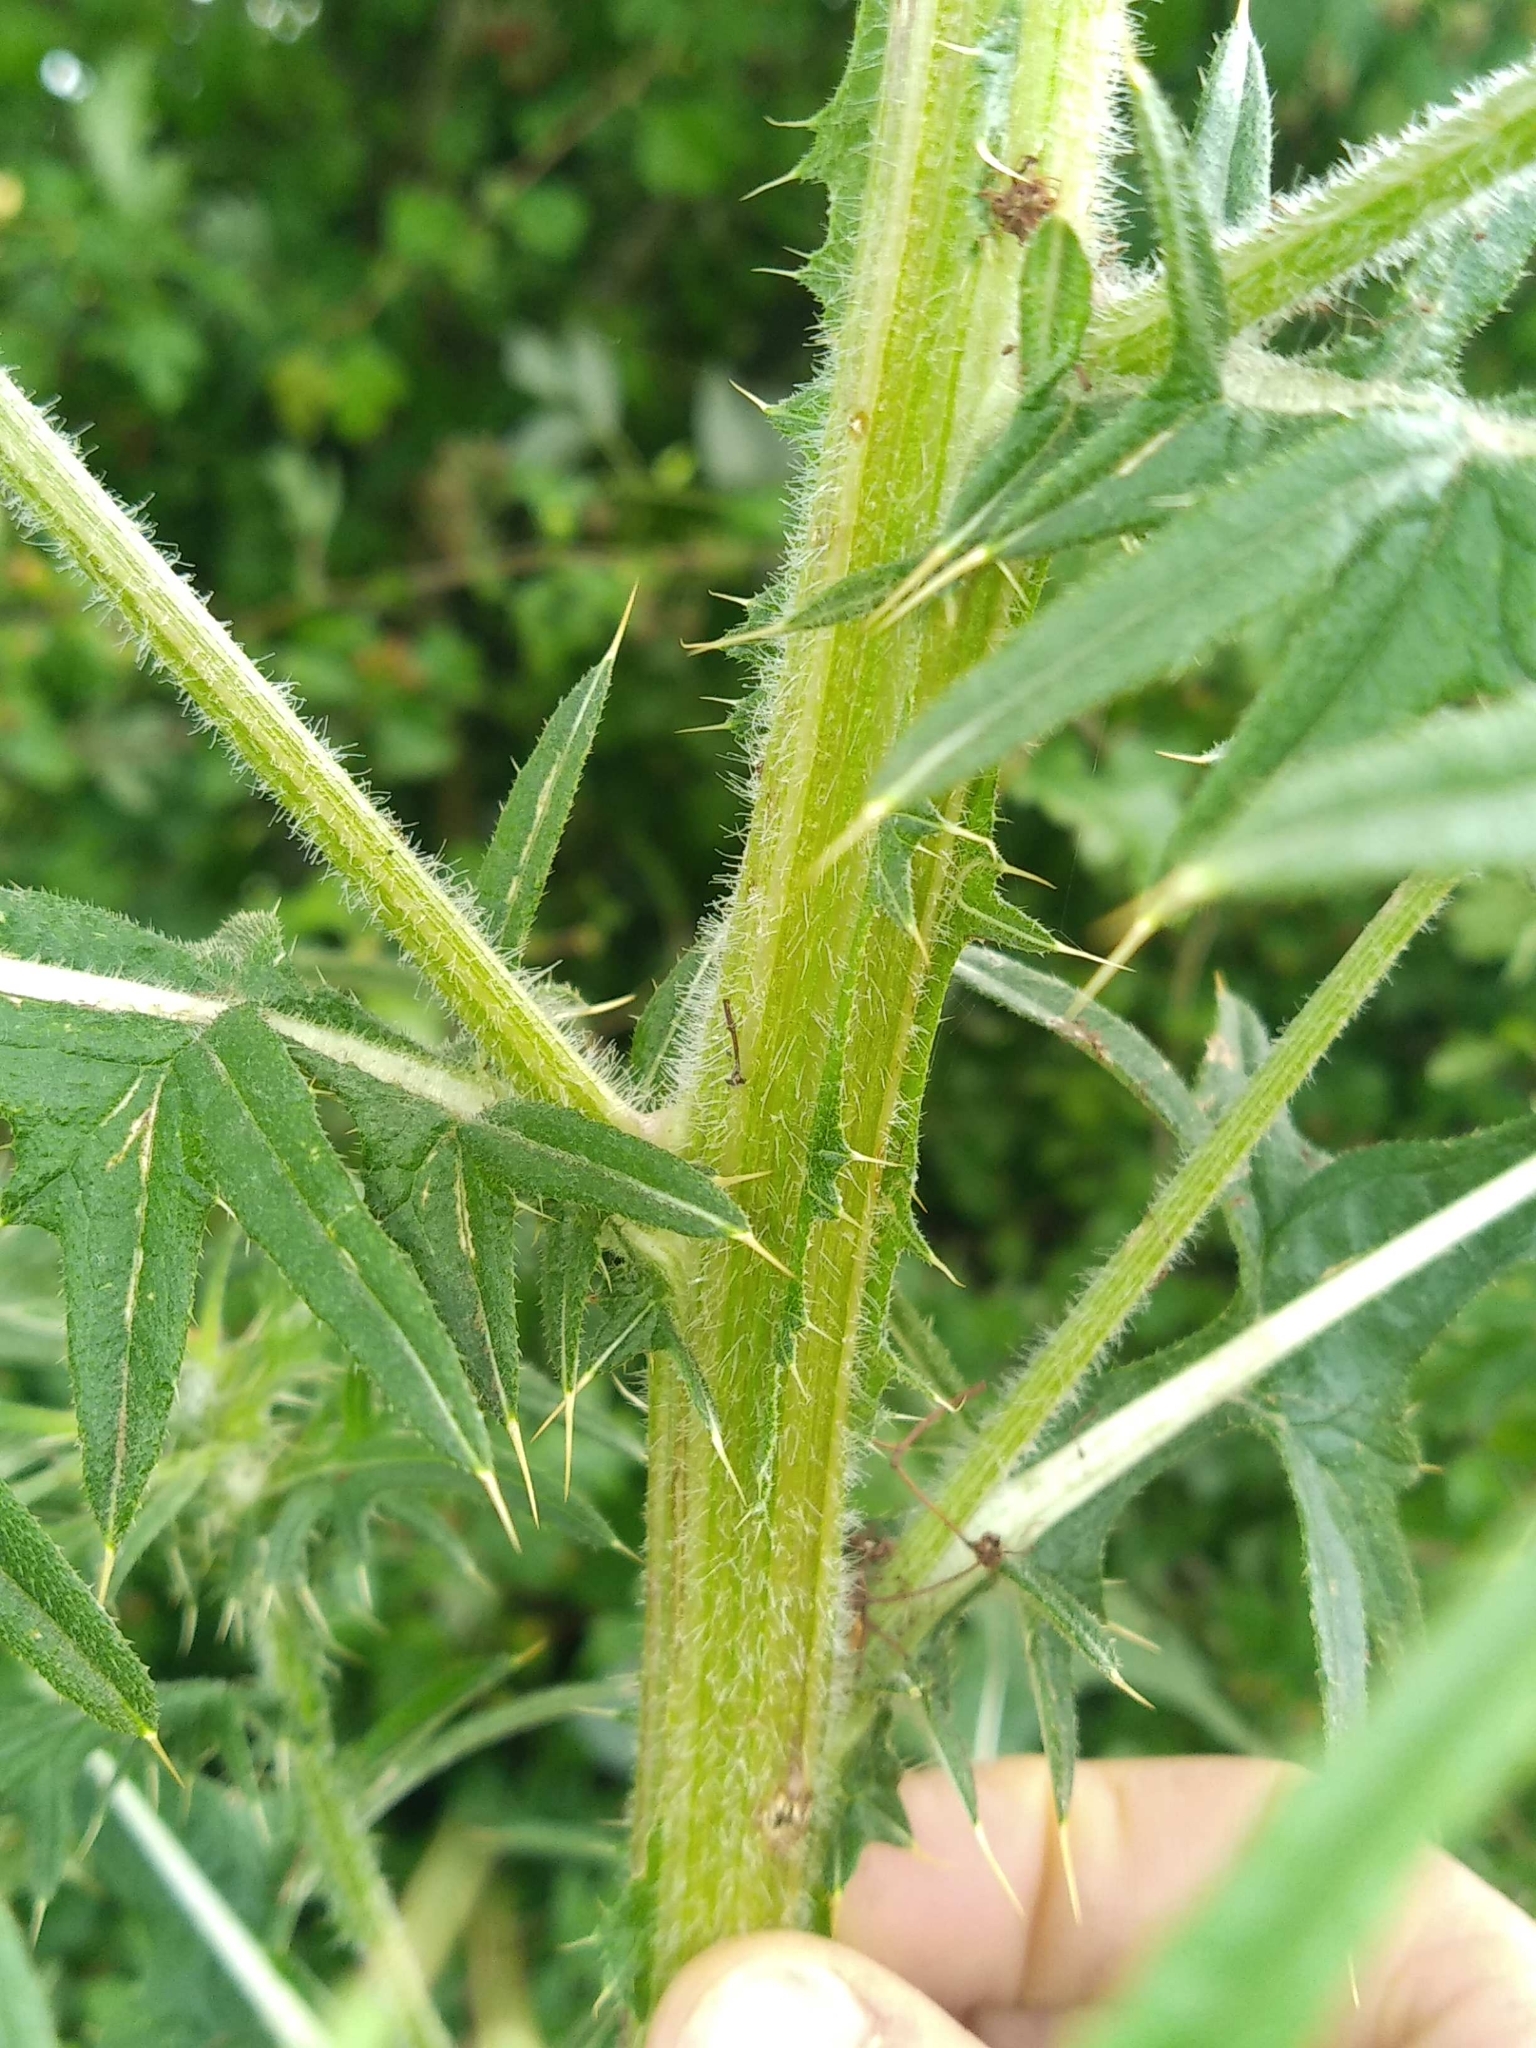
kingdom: Plantae
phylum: Tracheophyta
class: Magnoliopsida
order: Asterales
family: Asteraceae
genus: Cirsium
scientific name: Cirsium vulgare
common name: Bull thistle
